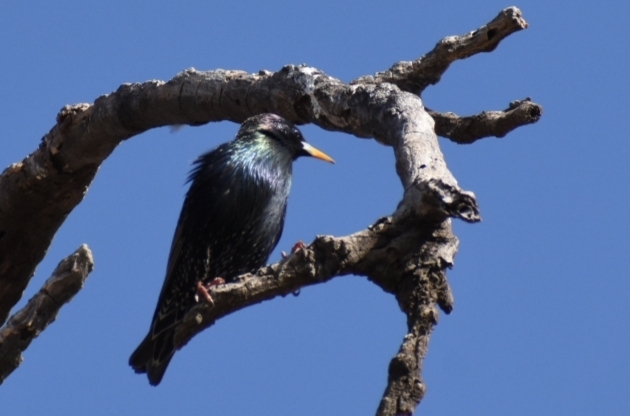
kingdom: Animalia
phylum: Chordata
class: Aves
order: Passeriformes
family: Sturnidae
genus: Sturnus
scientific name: Sturnus vulgaris
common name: Common starling
